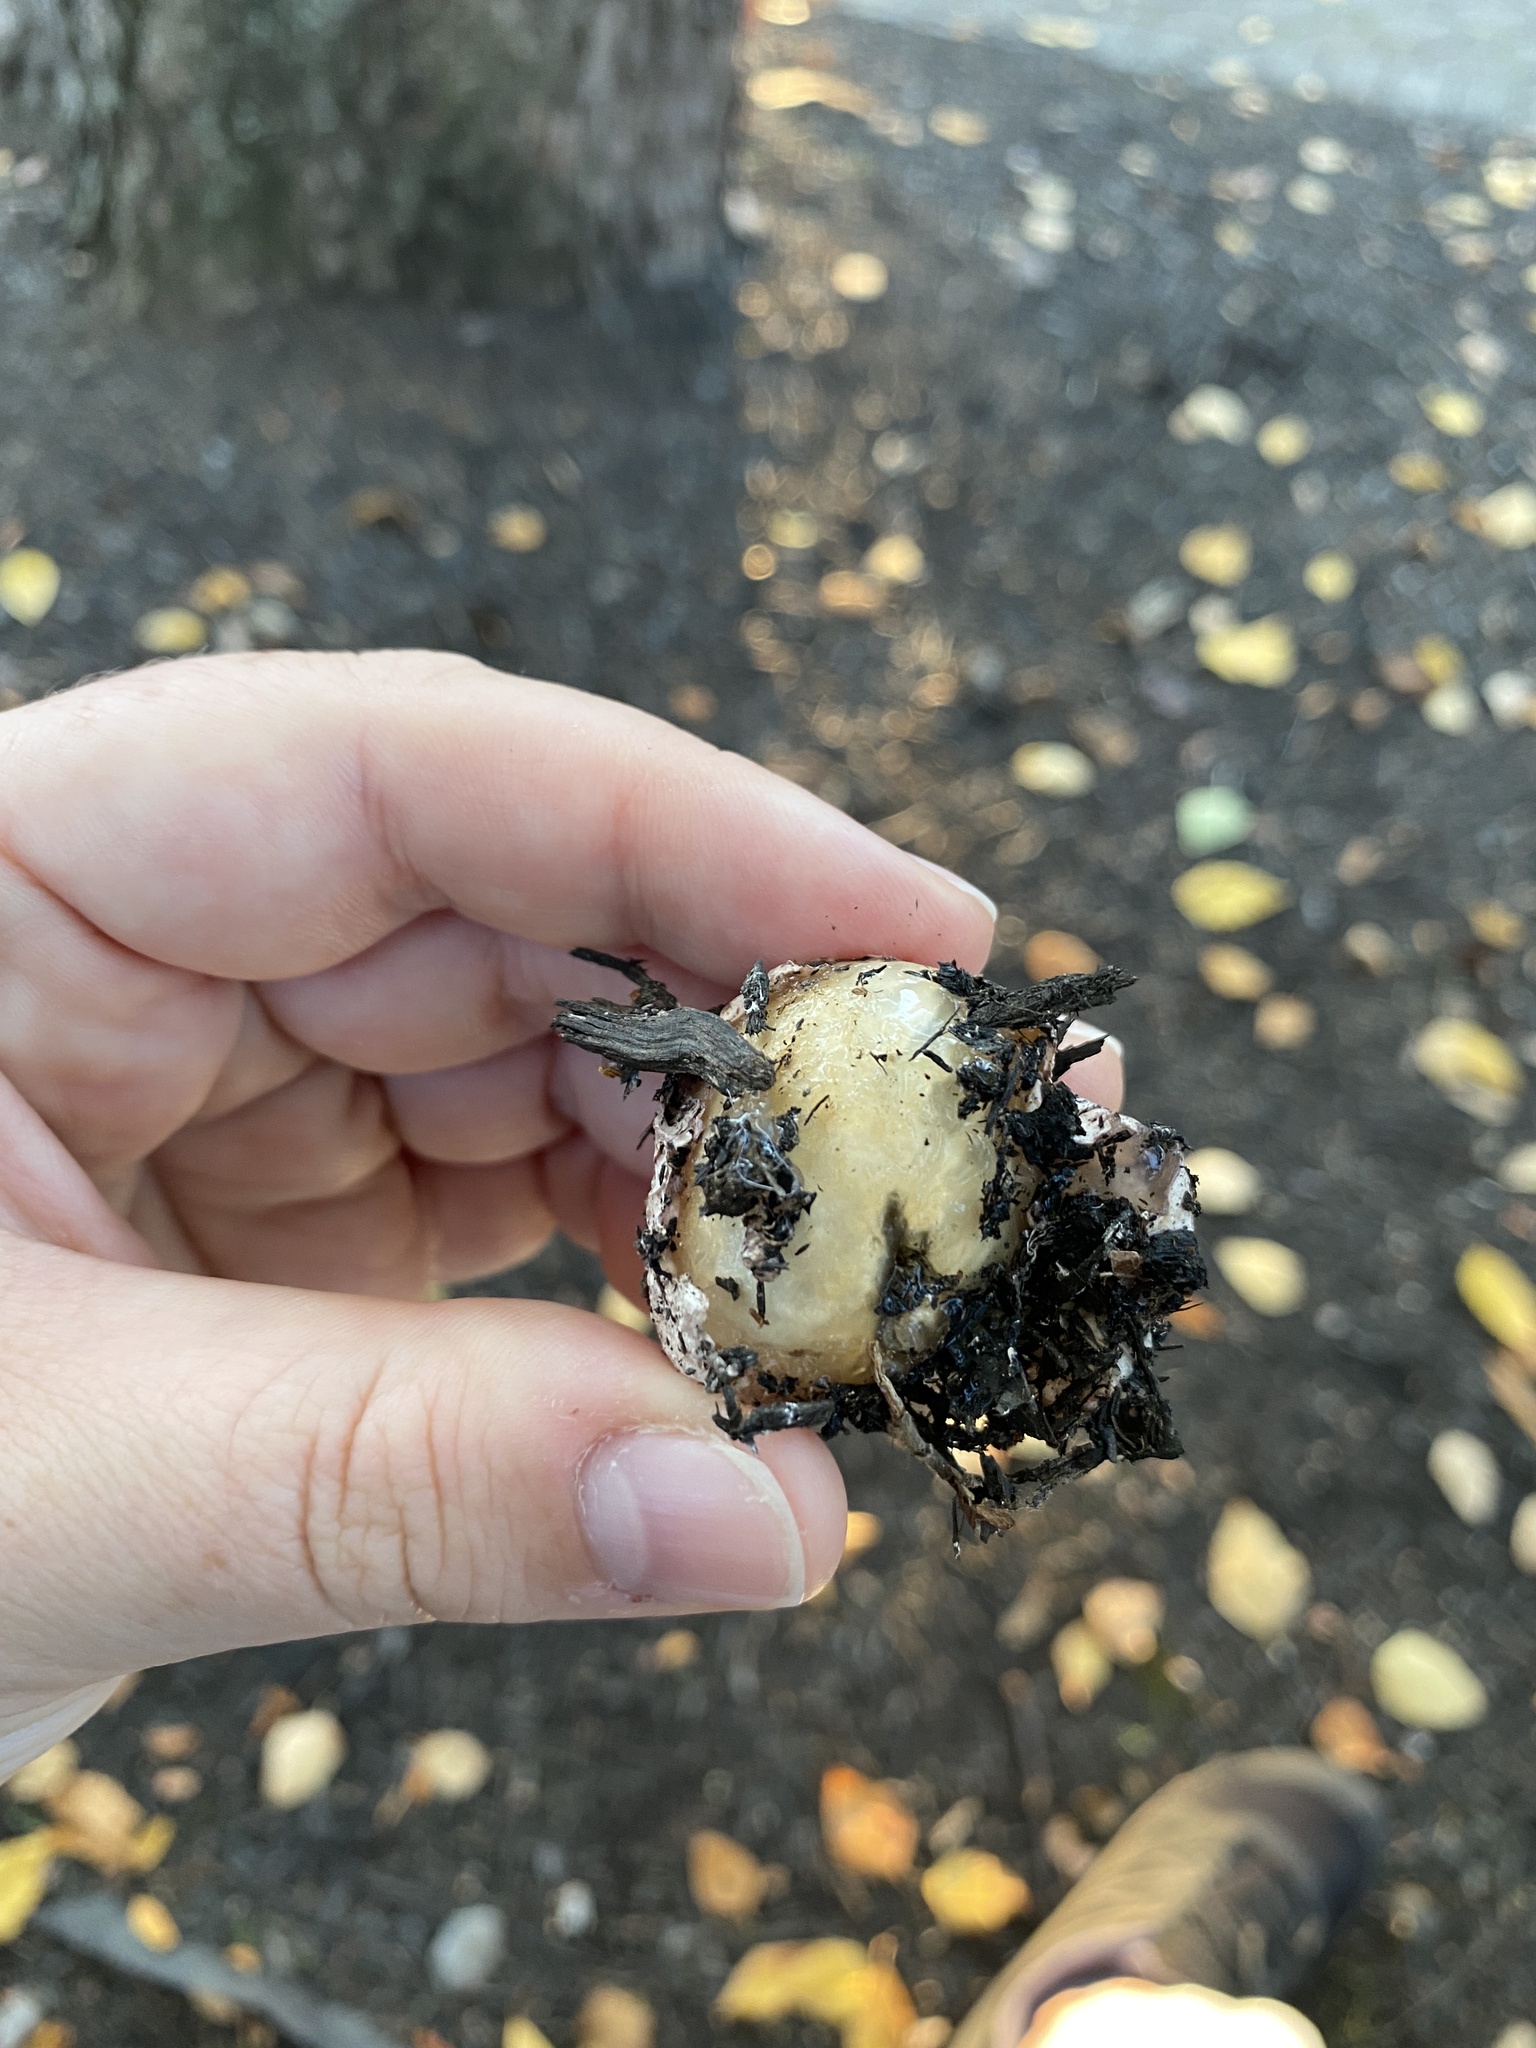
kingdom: Fungi
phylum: Basidiomycota
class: Agaricomycetes
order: Phallales
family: Phallaceae
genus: Phallus
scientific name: Phallus ravenelii
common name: Ravenel's stinkhorn
